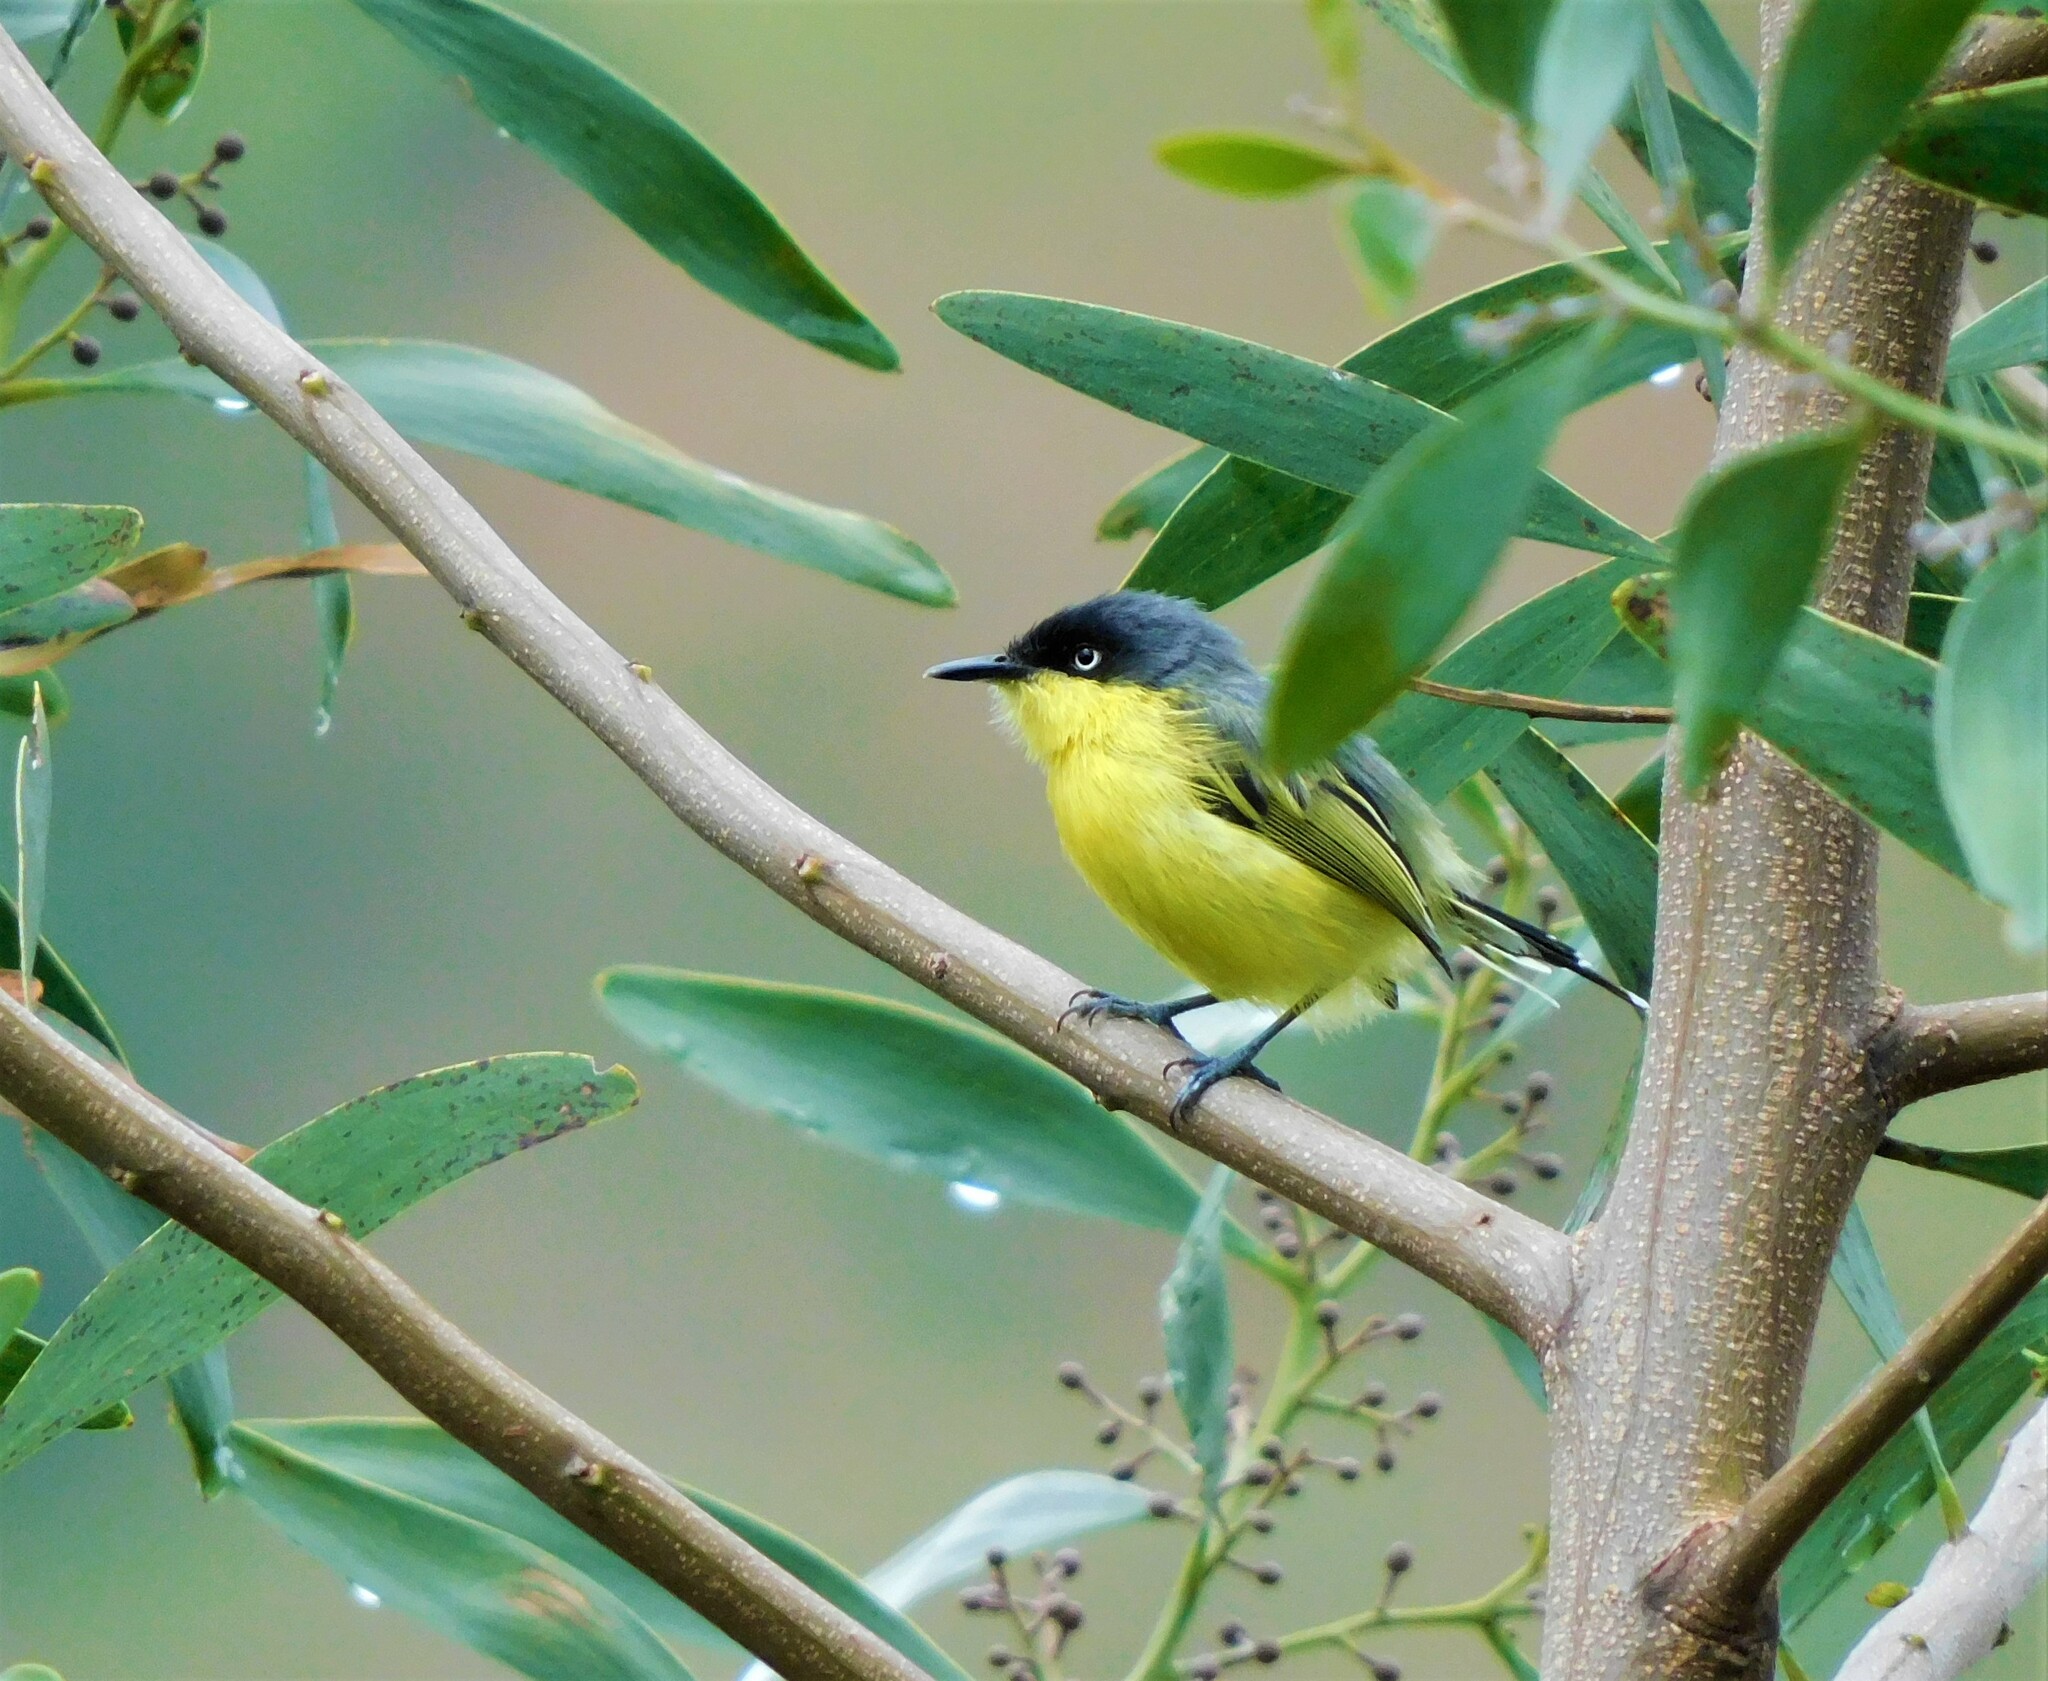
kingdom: Animalia
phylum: Chordata
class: Aves
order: Passeriformes
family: Tyrannidae
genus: Todirostrum
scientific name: Todirostrum cinereum
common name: Common tody-flycatcher
